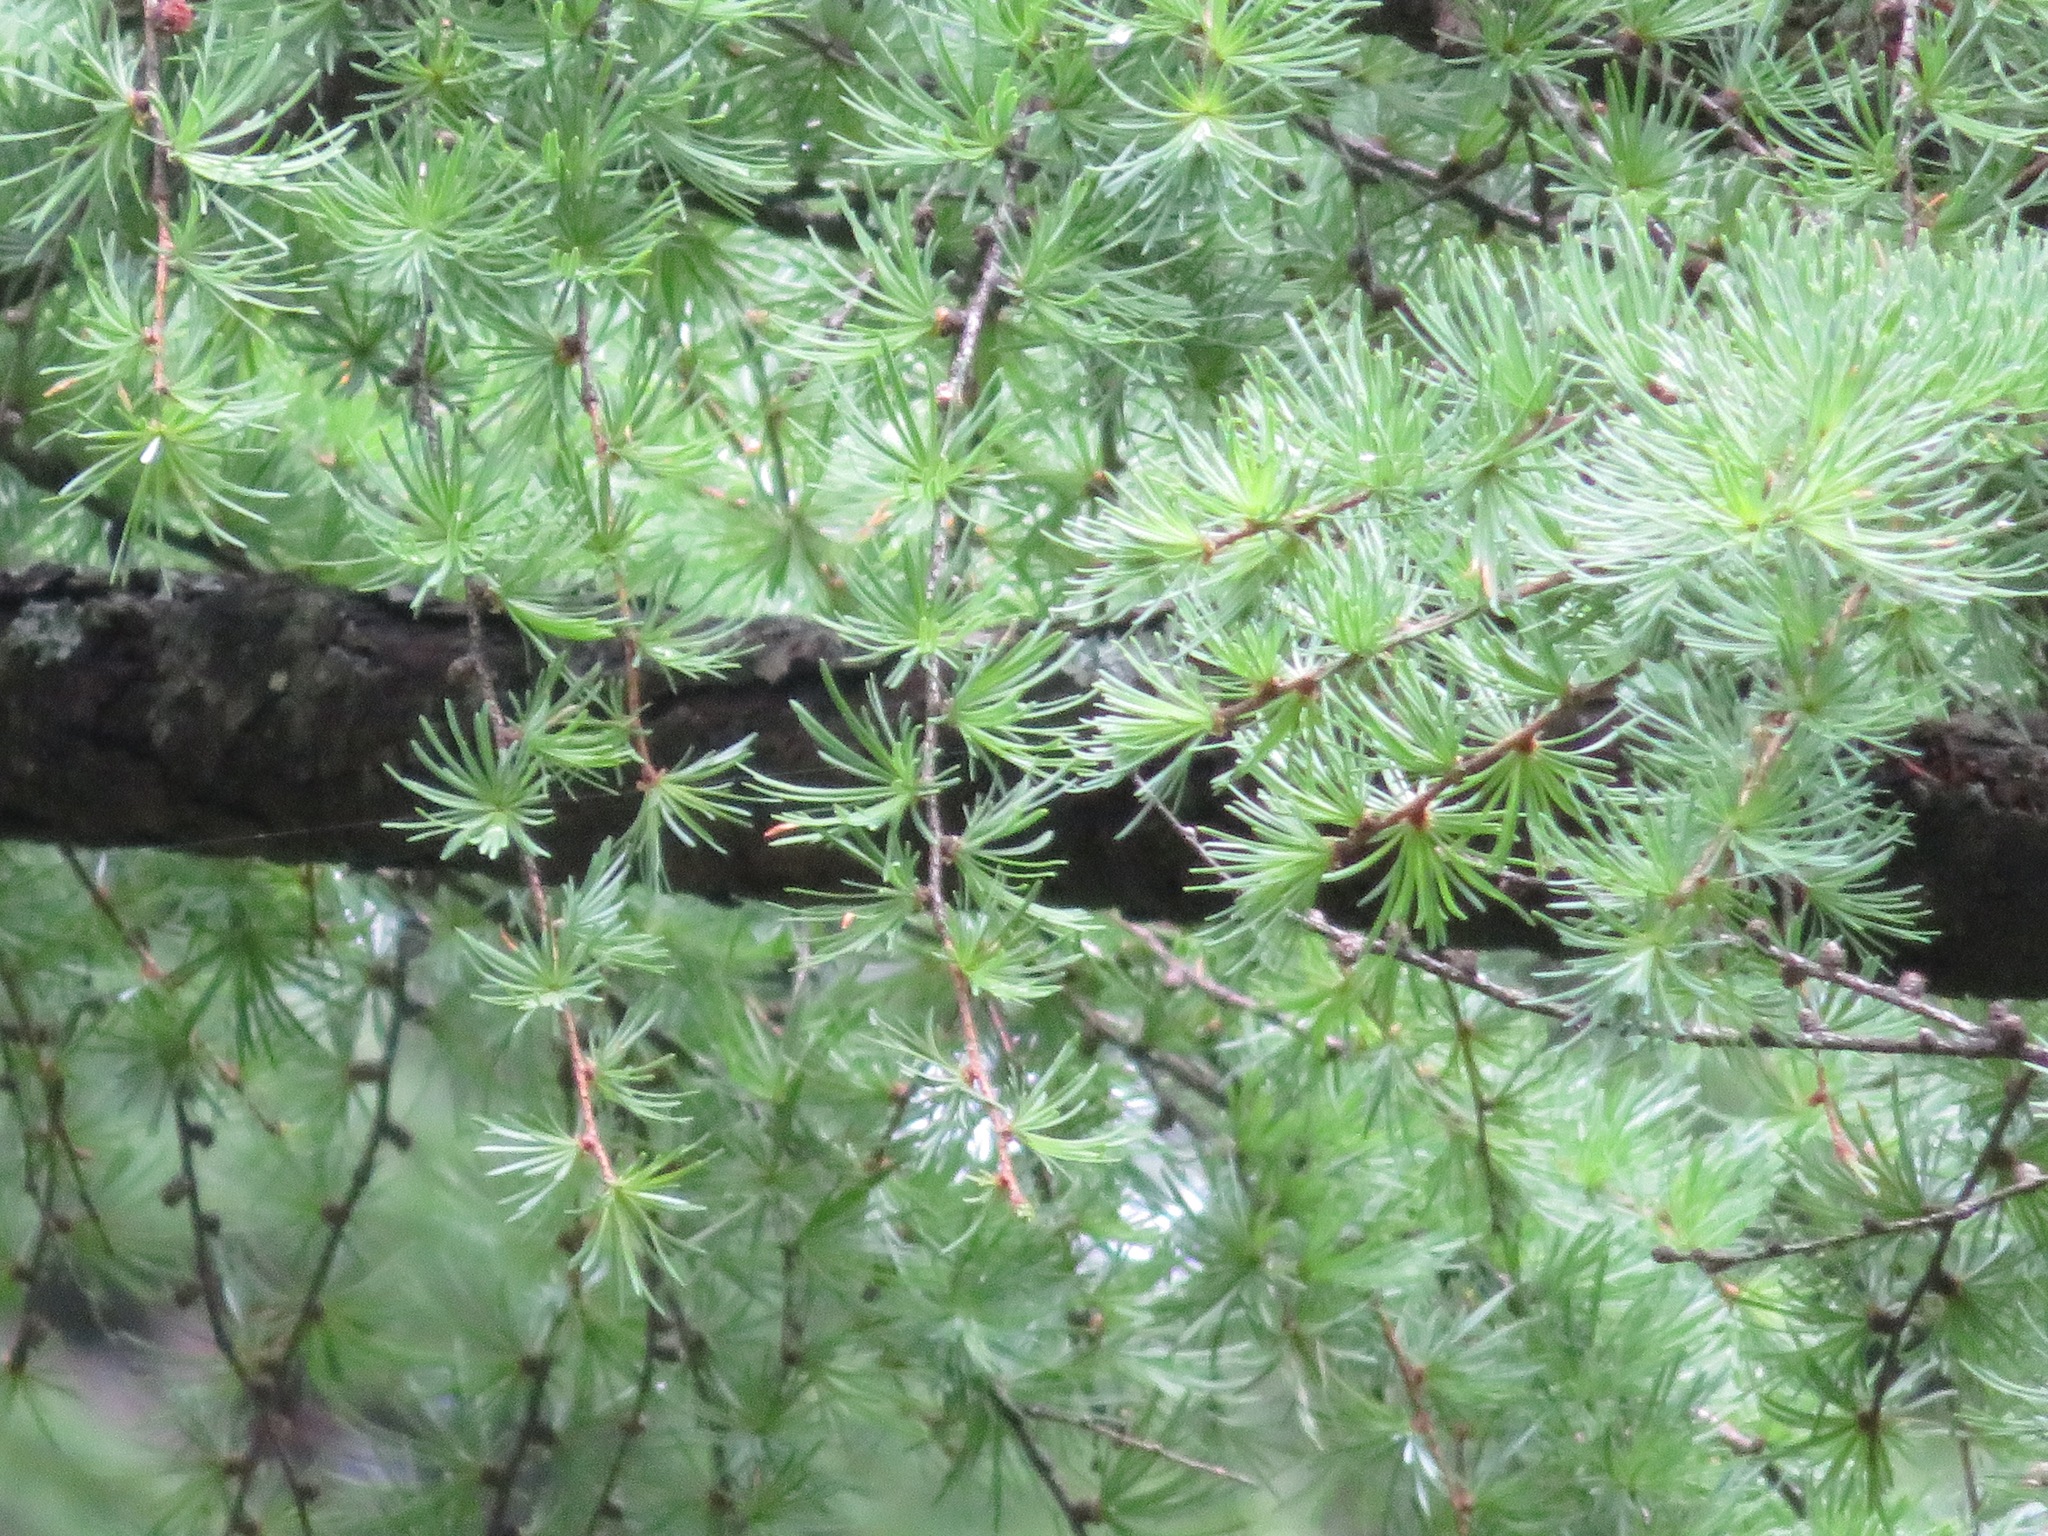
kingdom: Plantae
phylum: Tracheophyta
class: Pinopsida
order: Pinales
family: Pinaceae
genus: Larix
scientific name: Larix kaempferi
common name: Japanese larch
